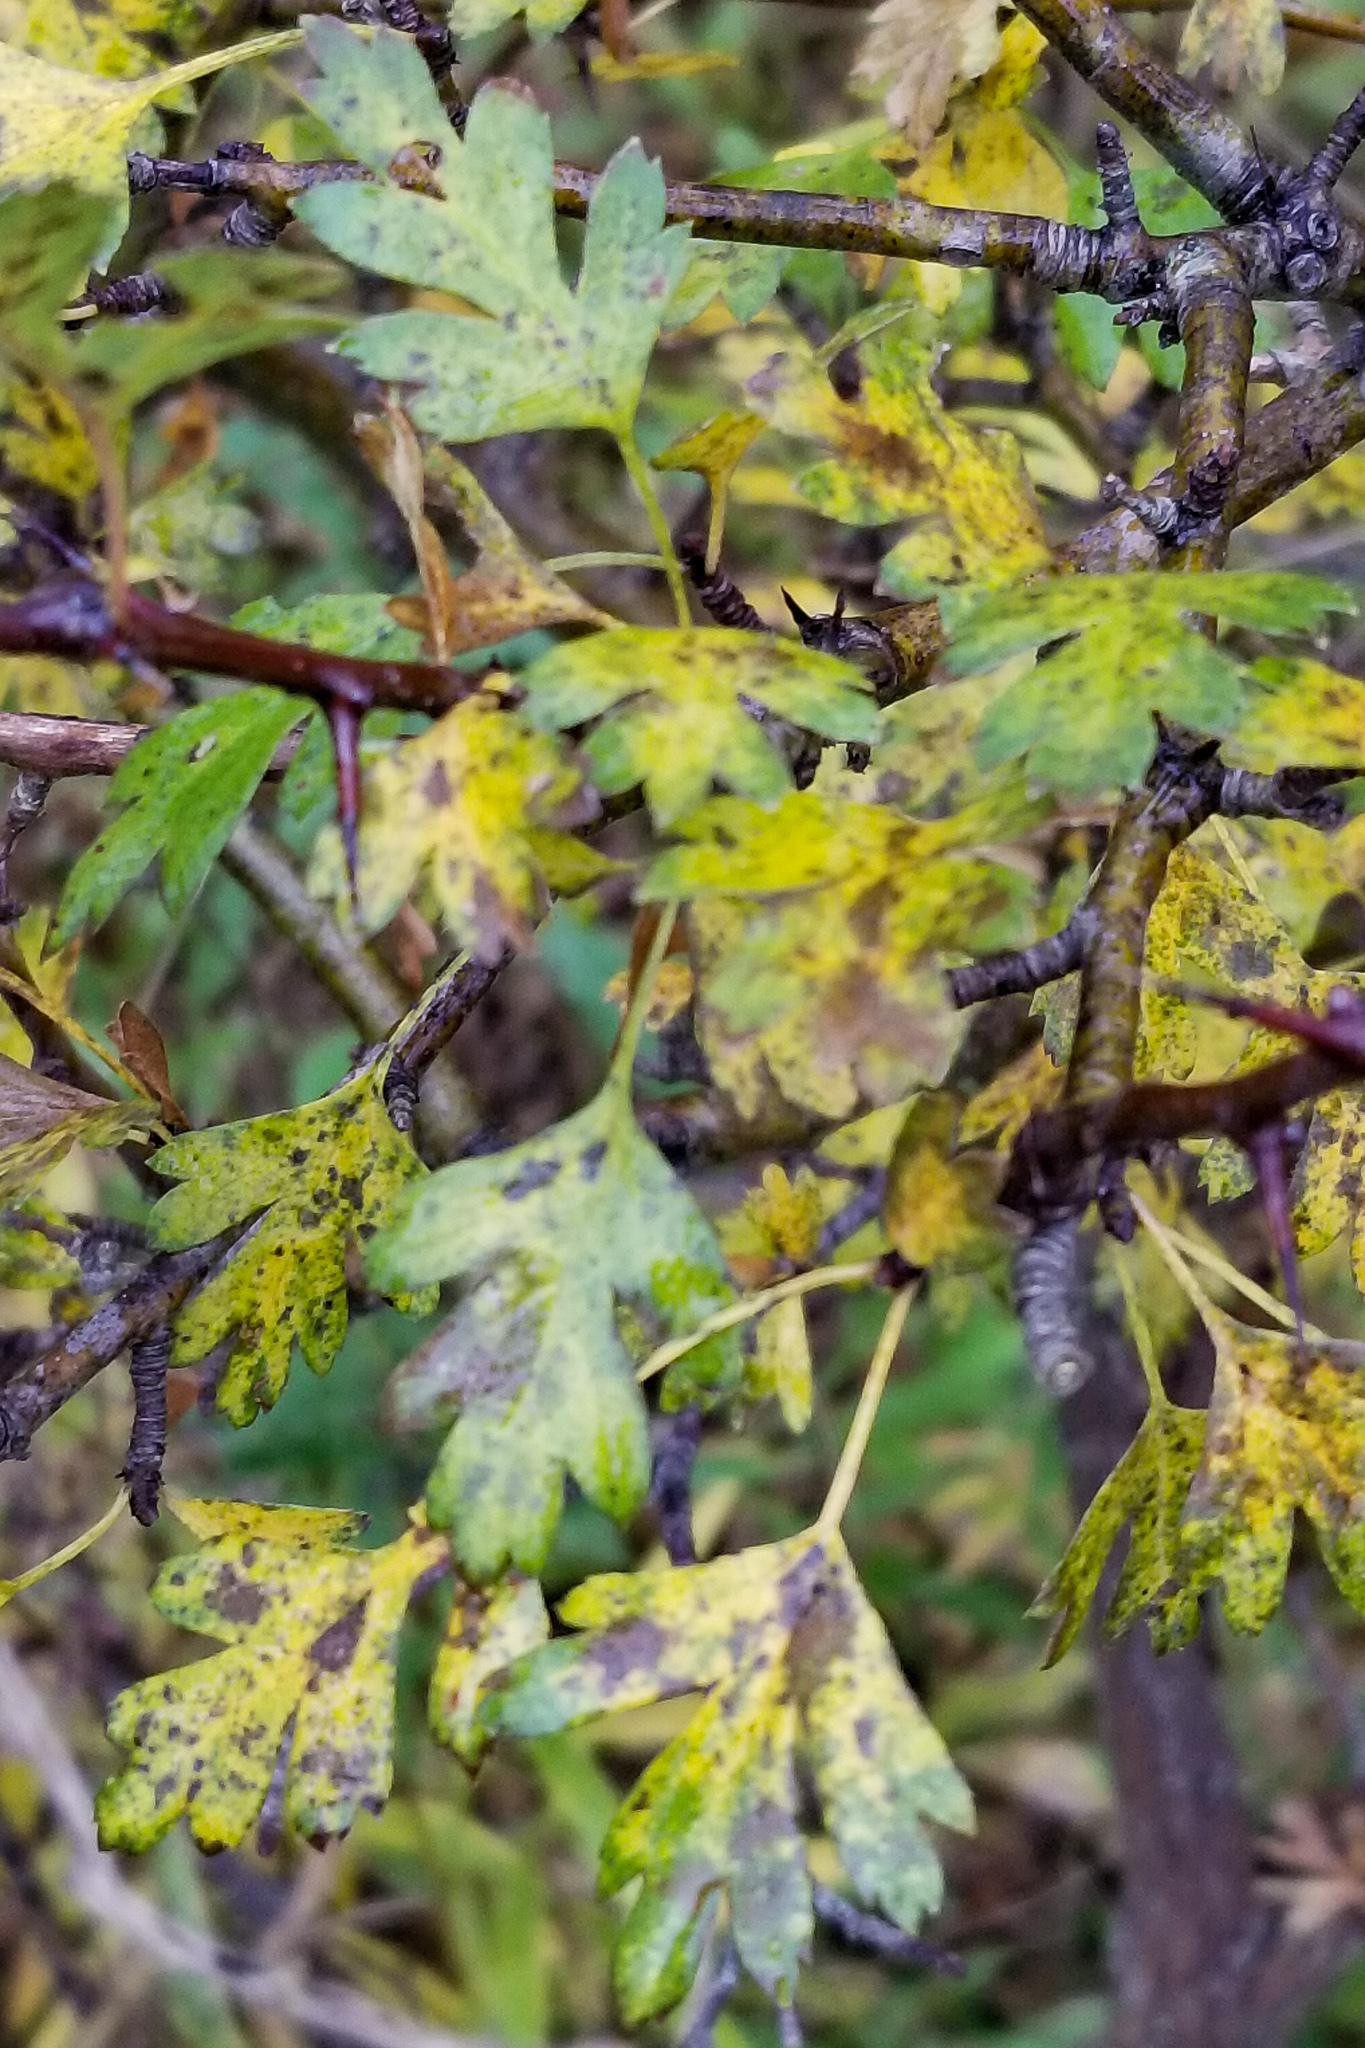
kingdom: Plantae
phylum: Tracheophyta
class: Magnoliopsida
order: Rosales
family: Rosaceae
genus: Crataegus
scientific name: Crataegus monogyna
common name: Hawthorn
